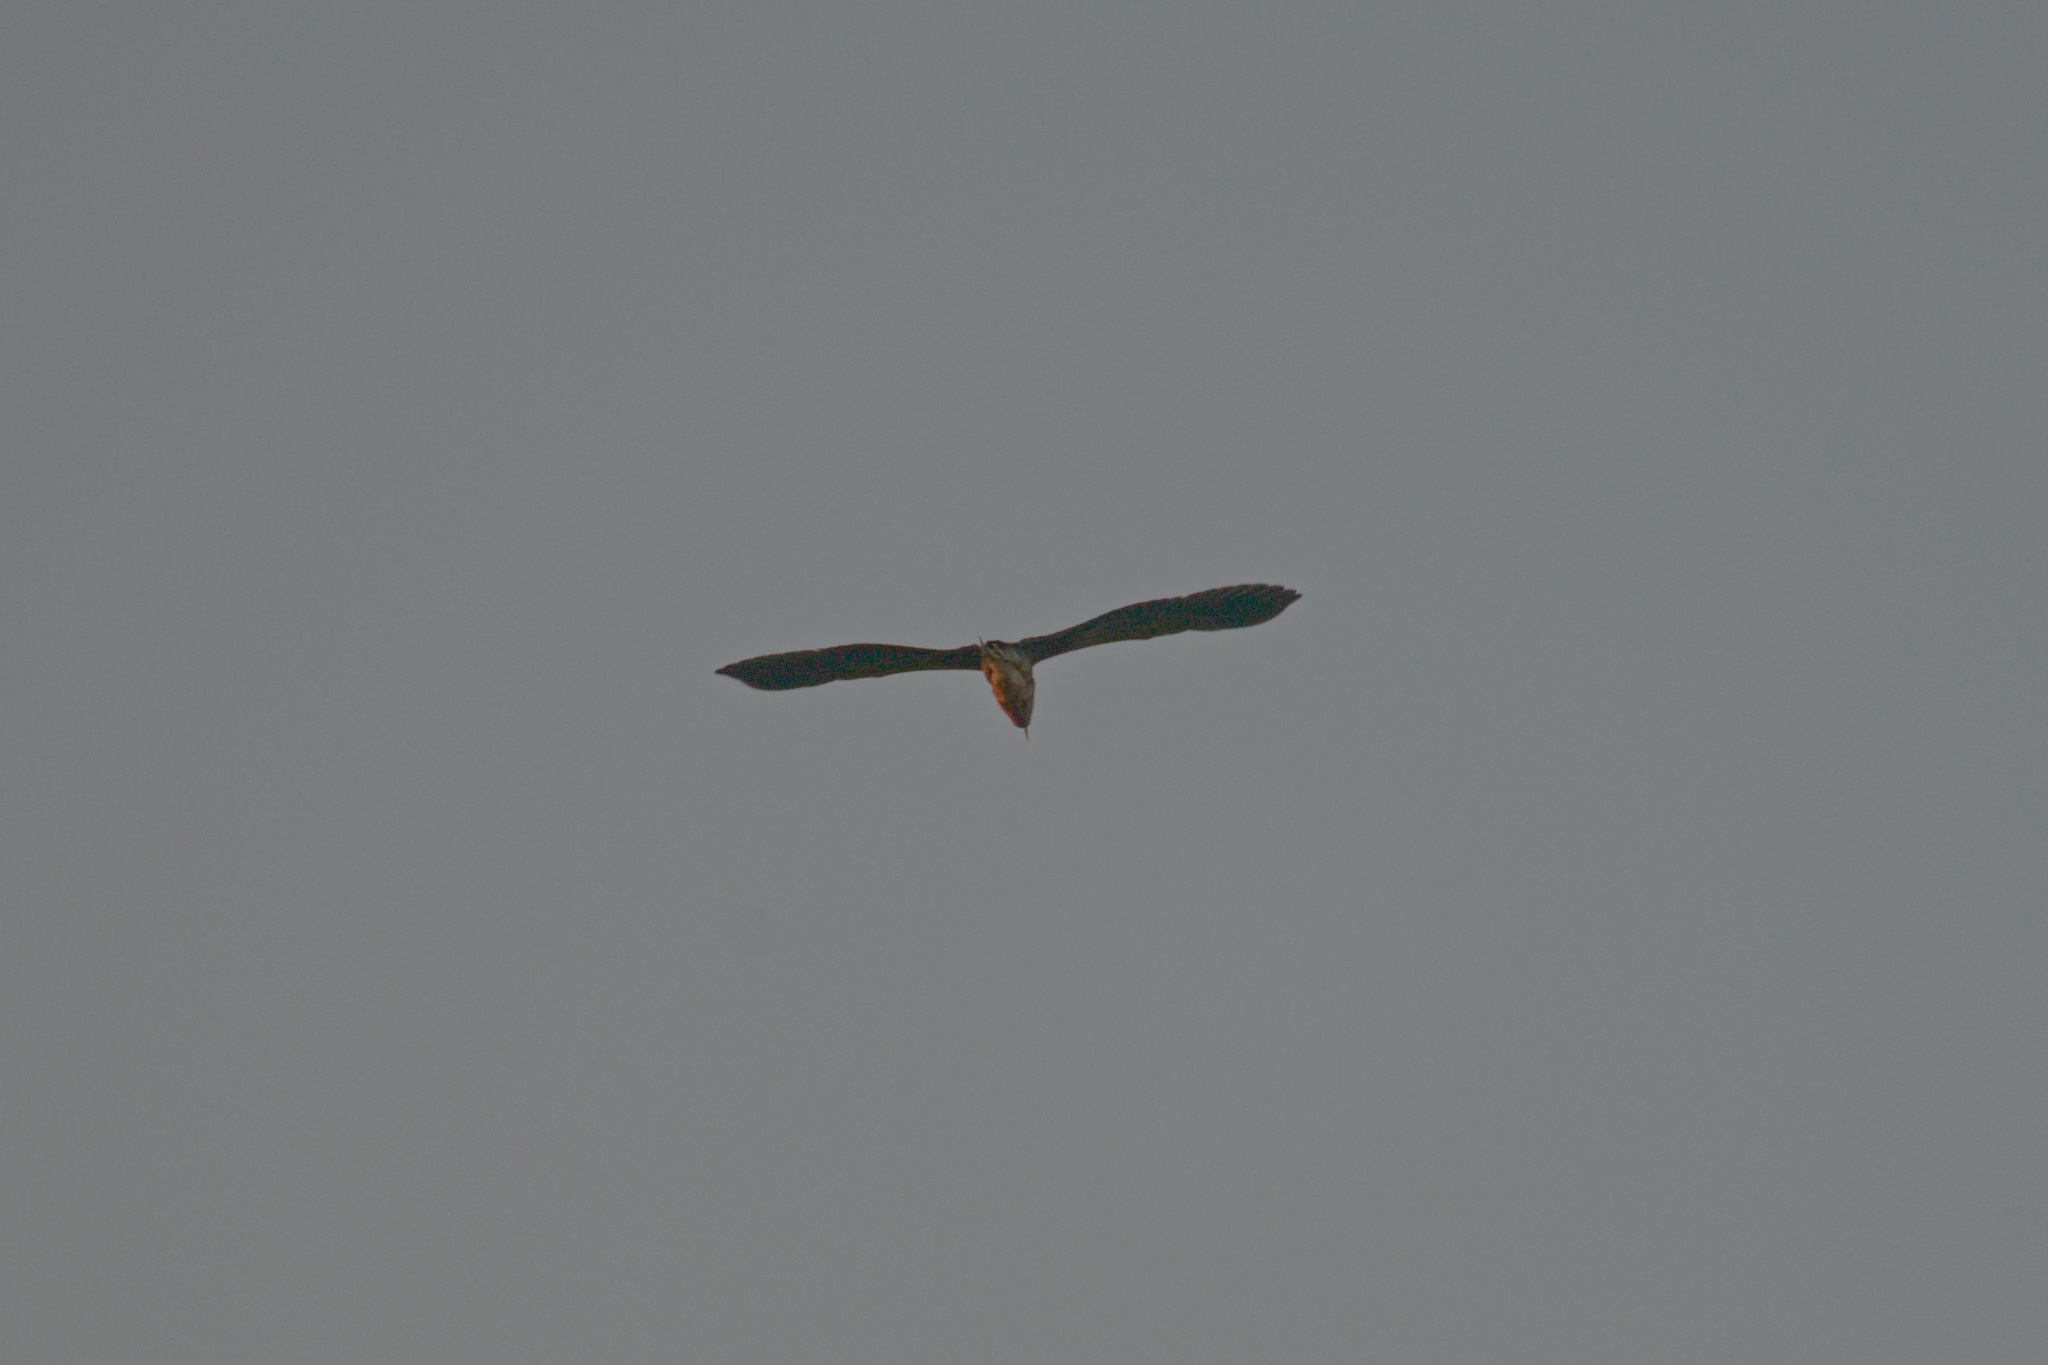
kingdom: Animalia
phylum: Chordata
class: Aves
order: Pelecaniformes
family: Ardeidae
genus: Botaurus
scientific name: Botaurus stellaris
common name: Eurasian bittern
